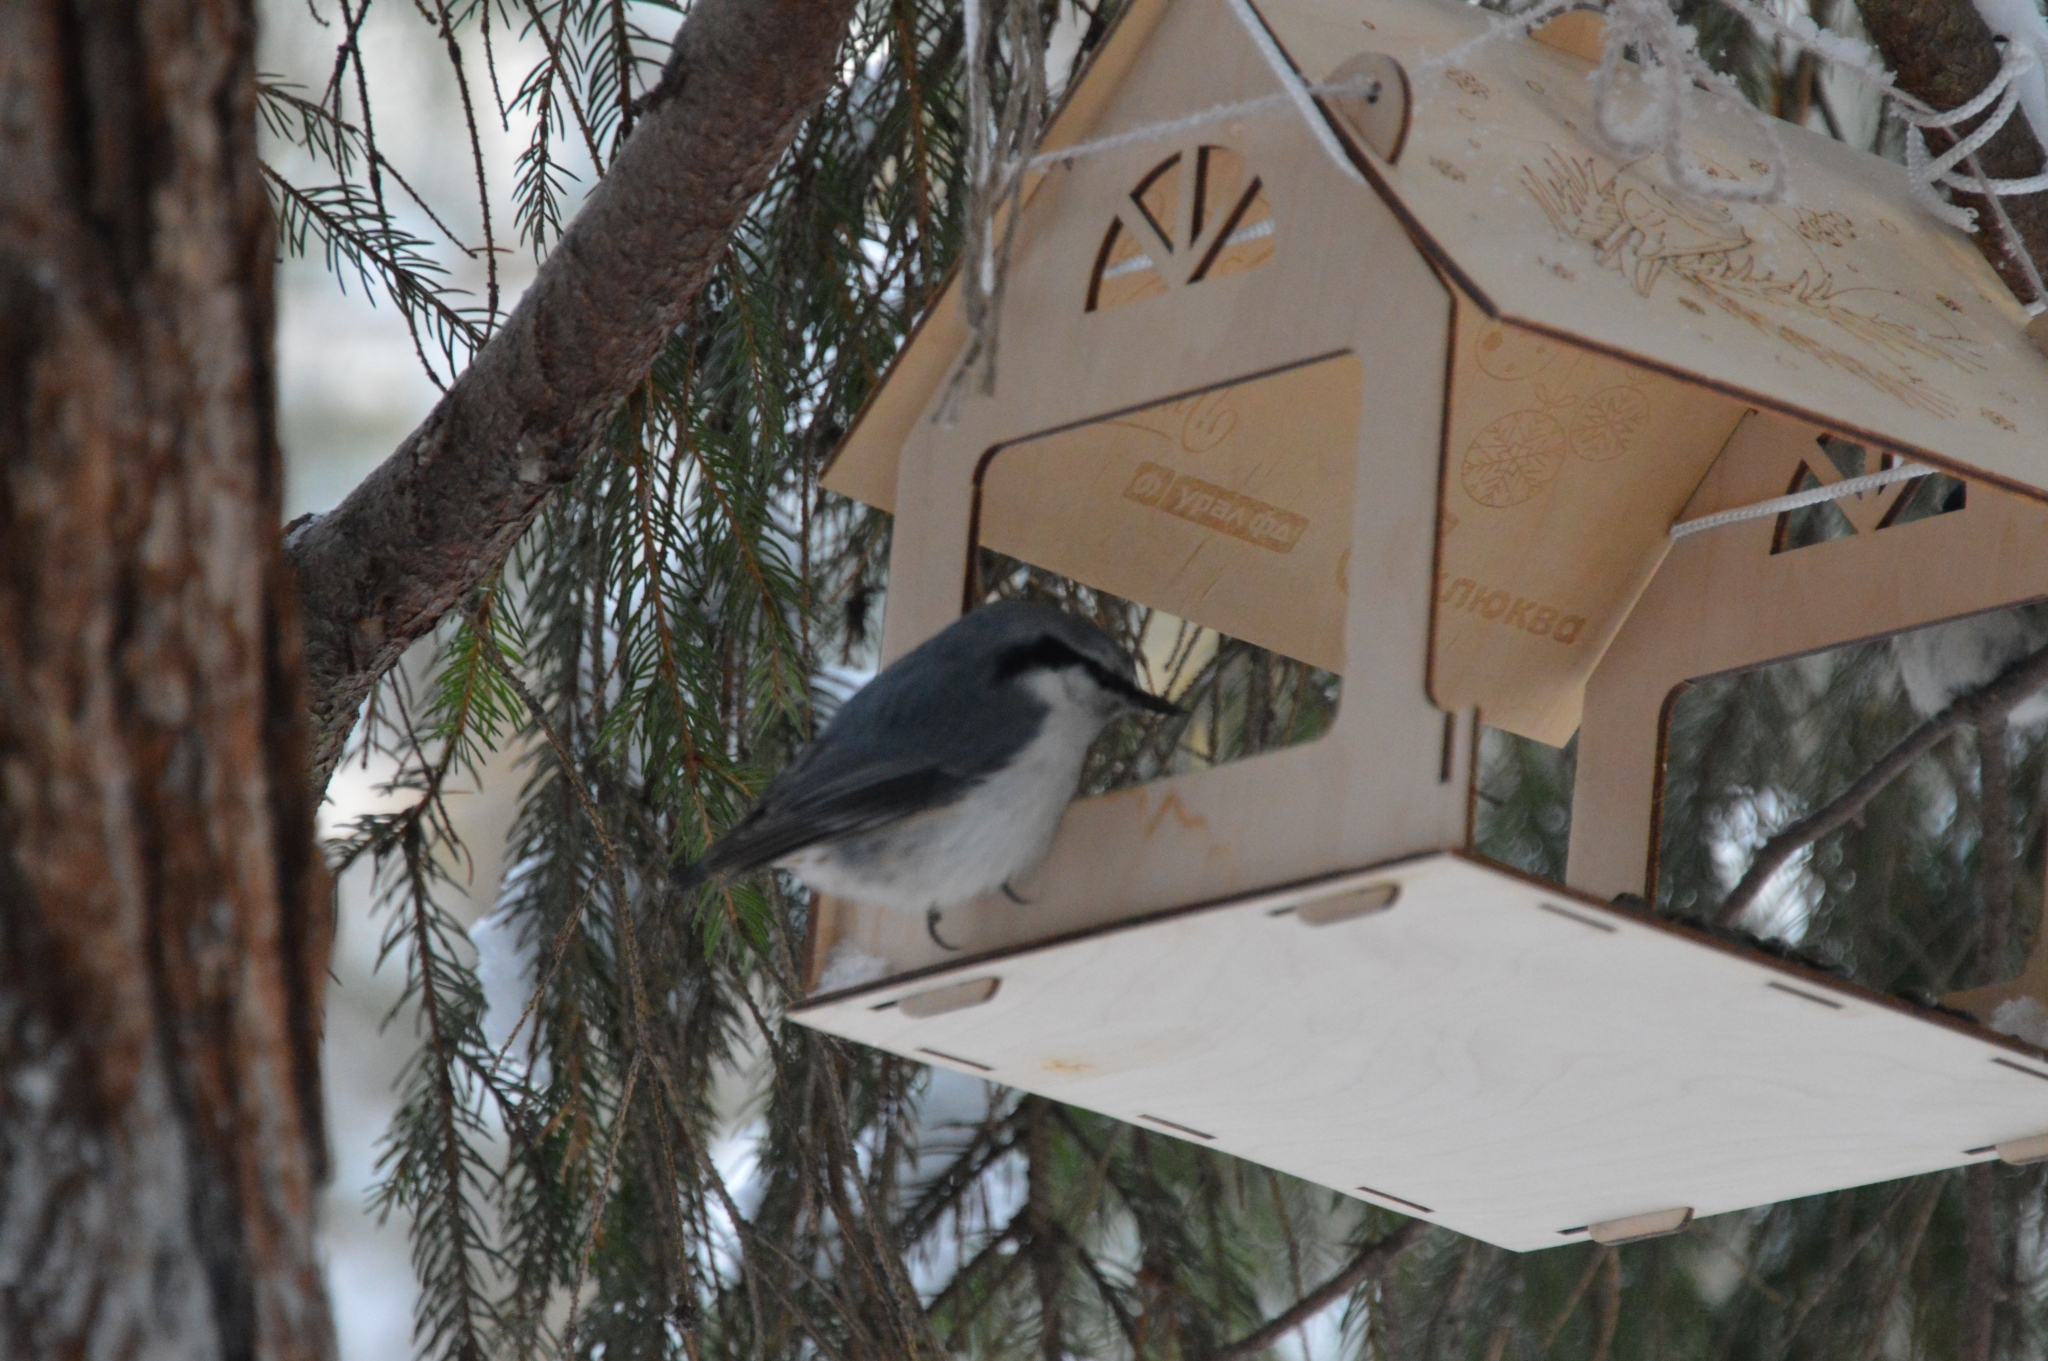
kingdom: Animalia
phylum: Chordata
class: Aves
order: Passeriformes
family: Sittidae
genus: Sitta
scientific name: Sitta europaea
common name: Eurasian nuthatch
